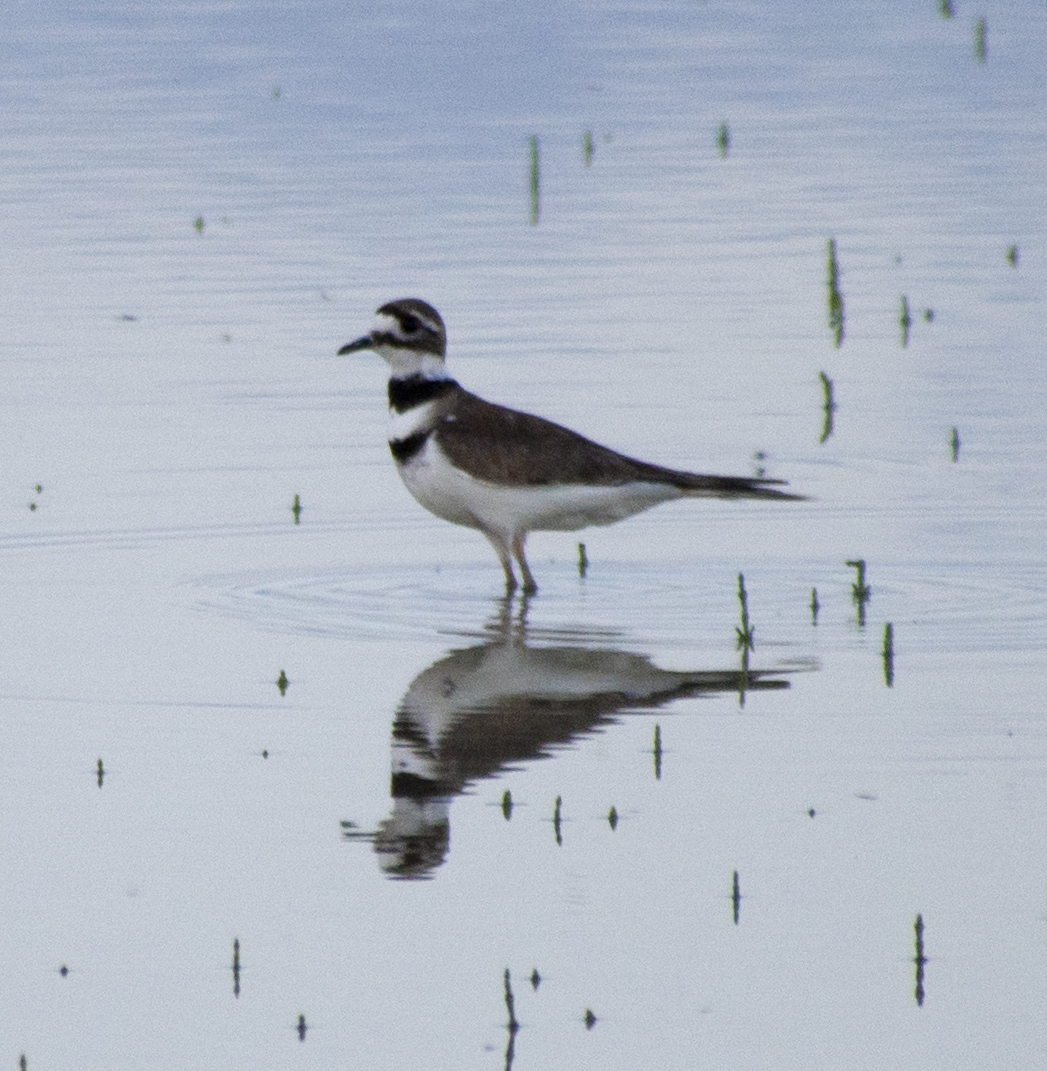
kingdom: Animalia
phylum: Chordata
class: Aves
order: Charadriiformes
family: Charadriidae
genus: Charadrius
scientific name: Charadrius vociferus
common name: Killdeer
